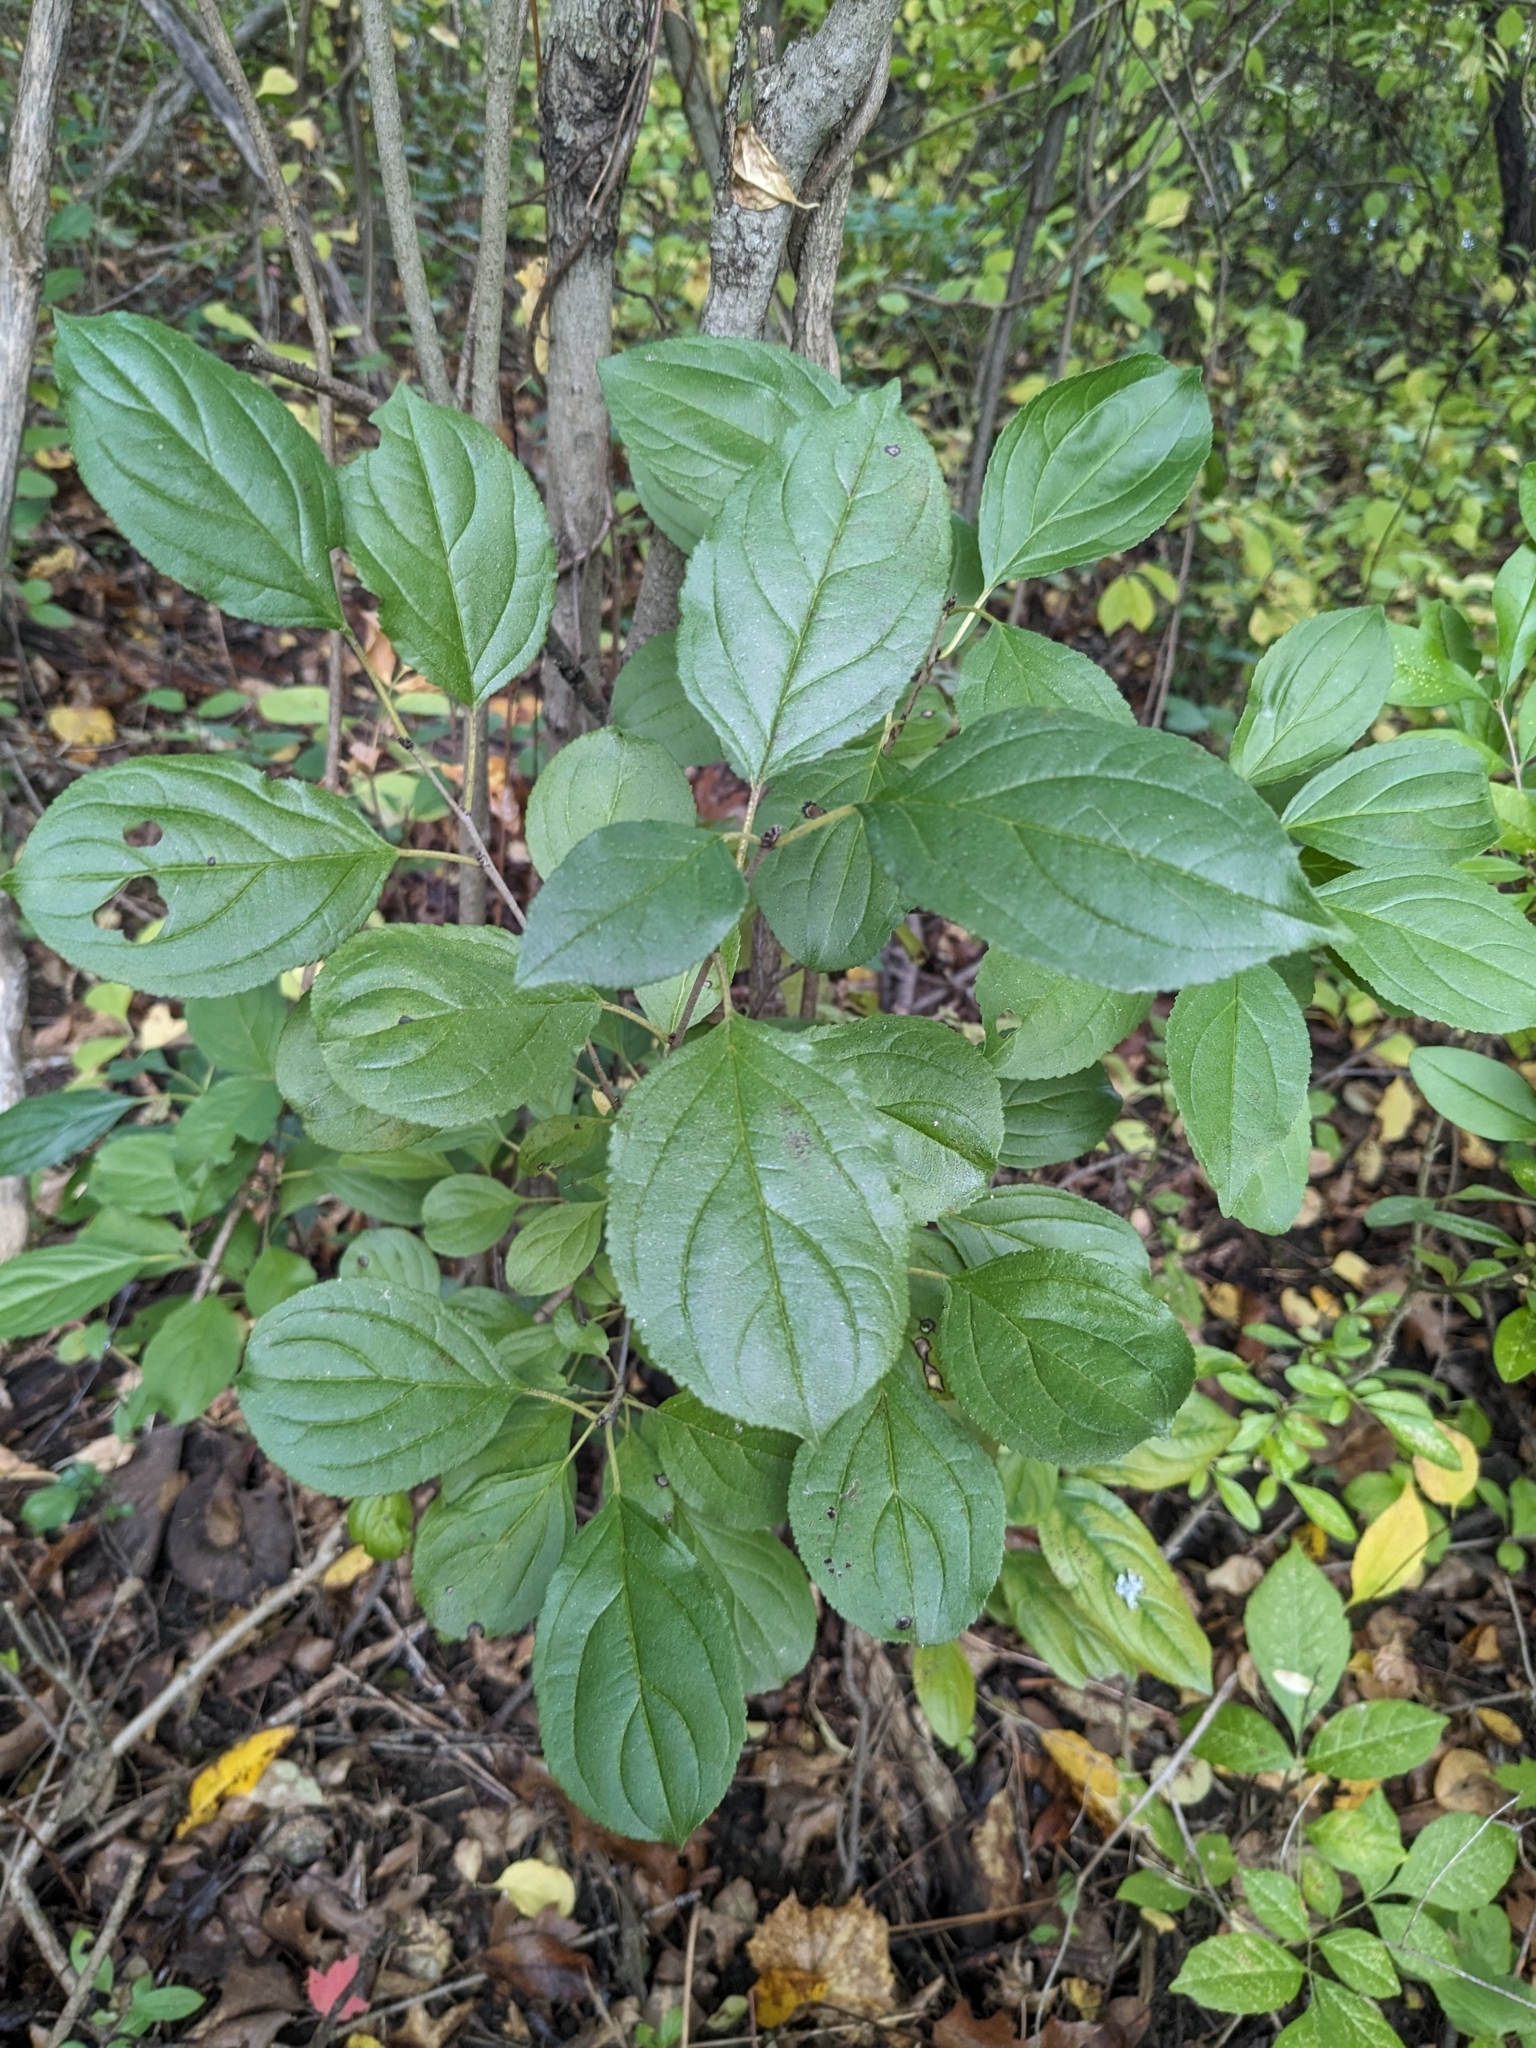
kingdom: Plantae
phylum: Tracheophyta
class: Magnoliopsida
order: Rosales
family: Rhamnaceae
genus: Rhamnus
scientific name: Rhamnus cathartica
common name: Common buckthorn
